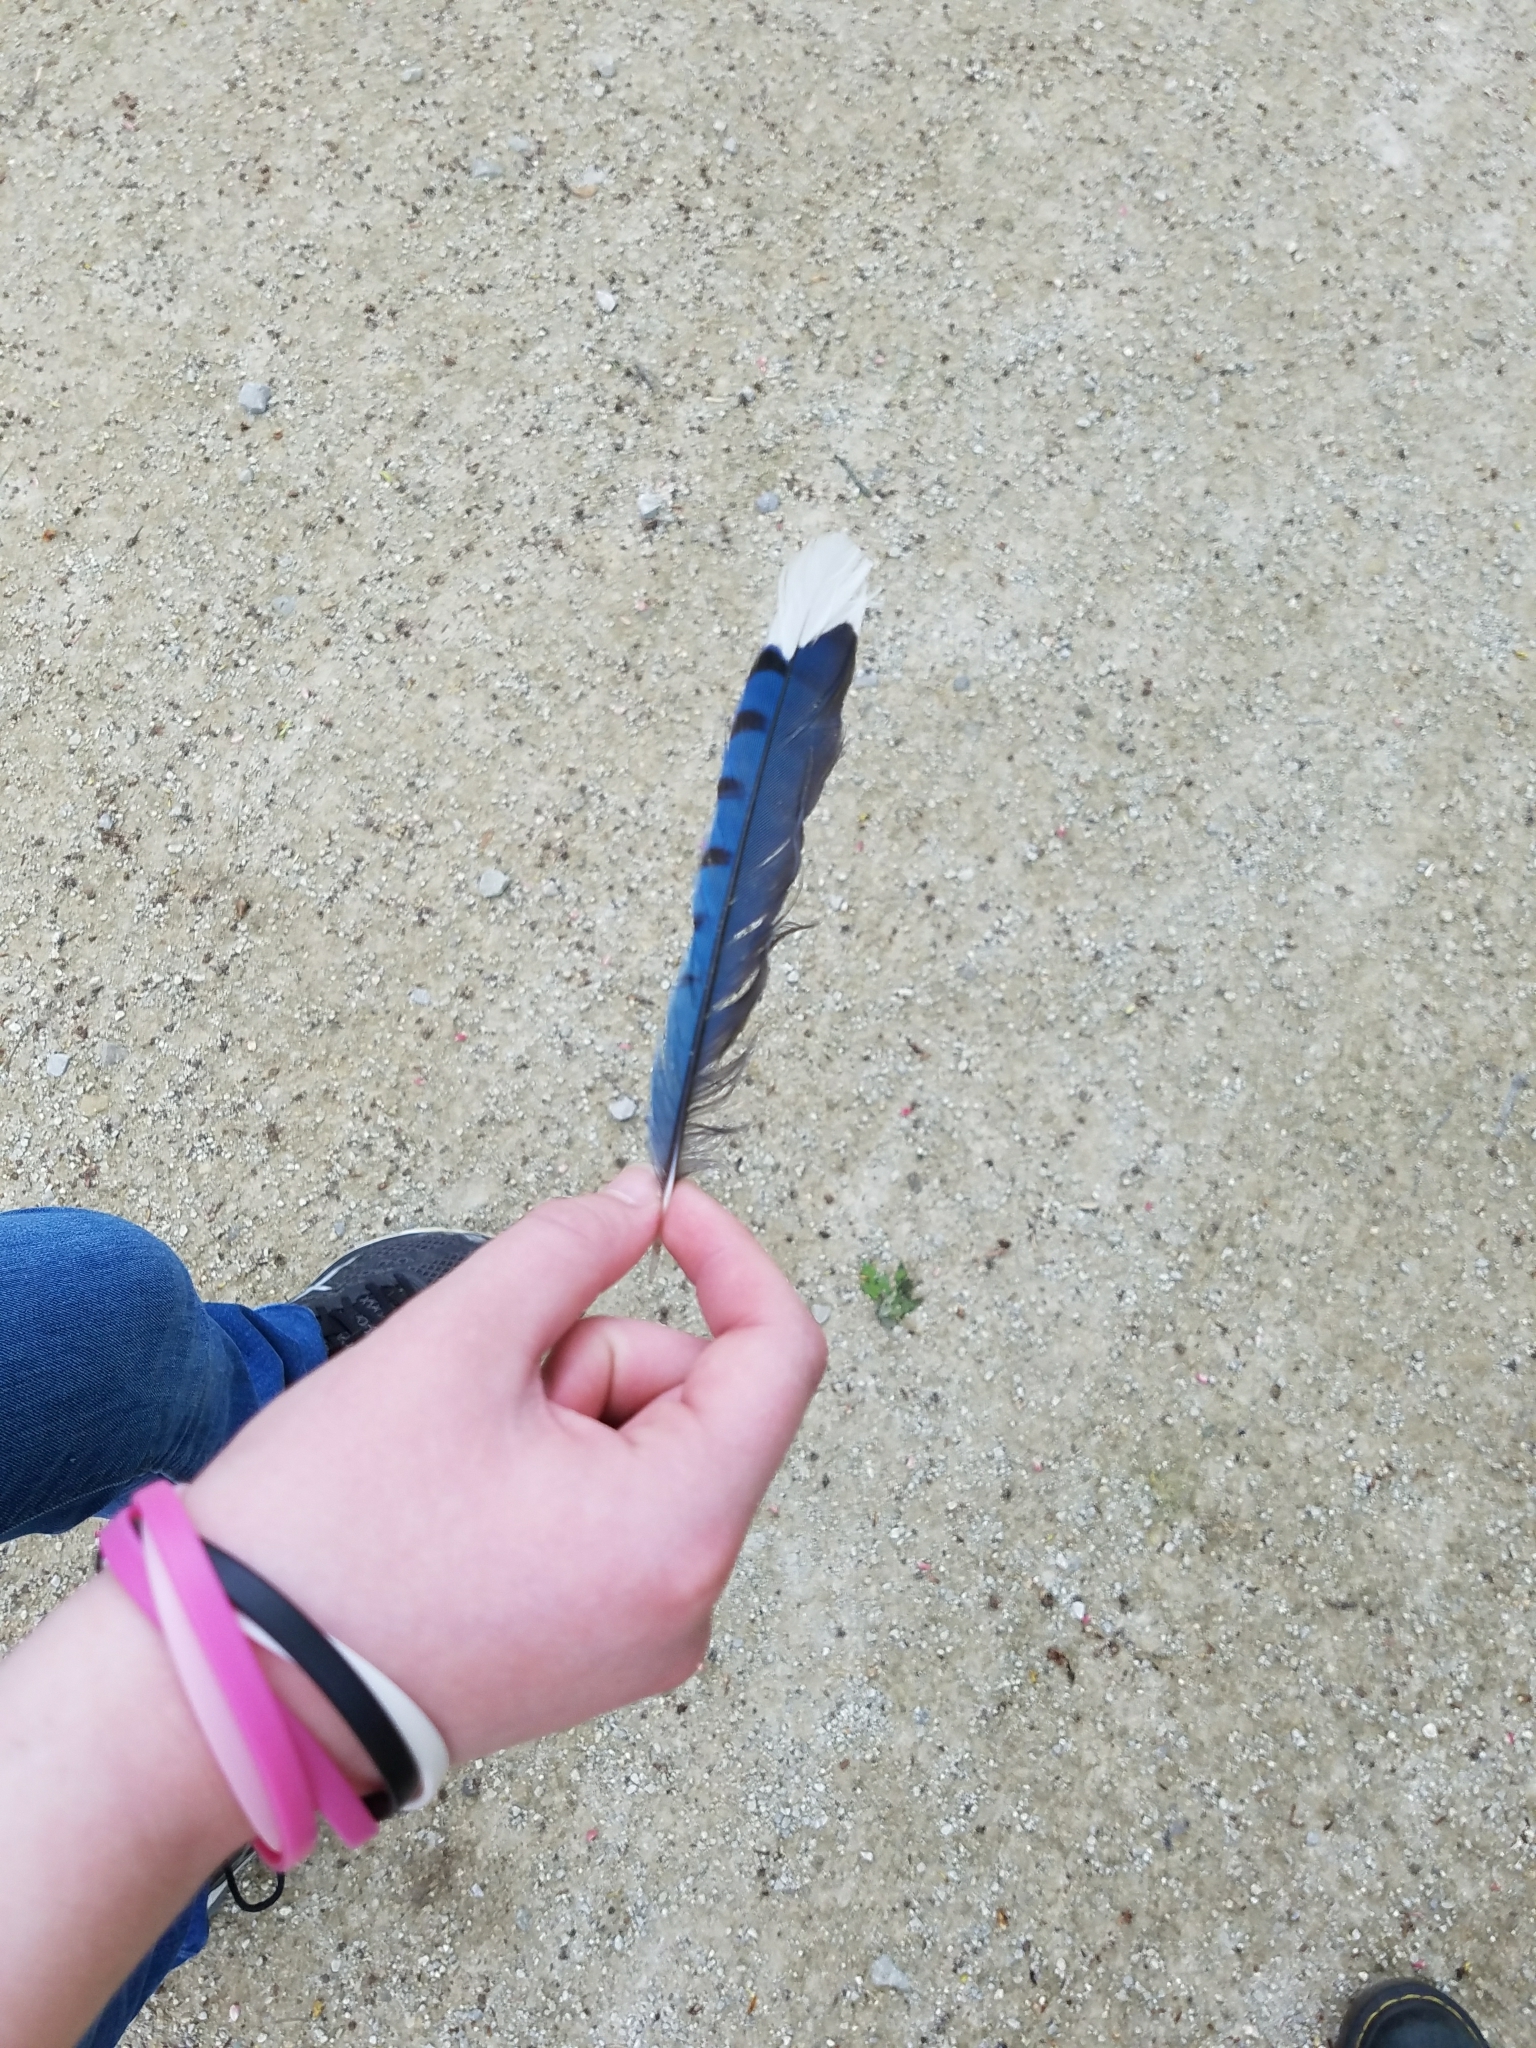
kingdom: Animalia
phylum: Chordata
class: Aves
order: Passeriformes
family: Corvidae
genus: Cyanocitta
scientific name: Cyanocitta cristata
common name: Blue jay
